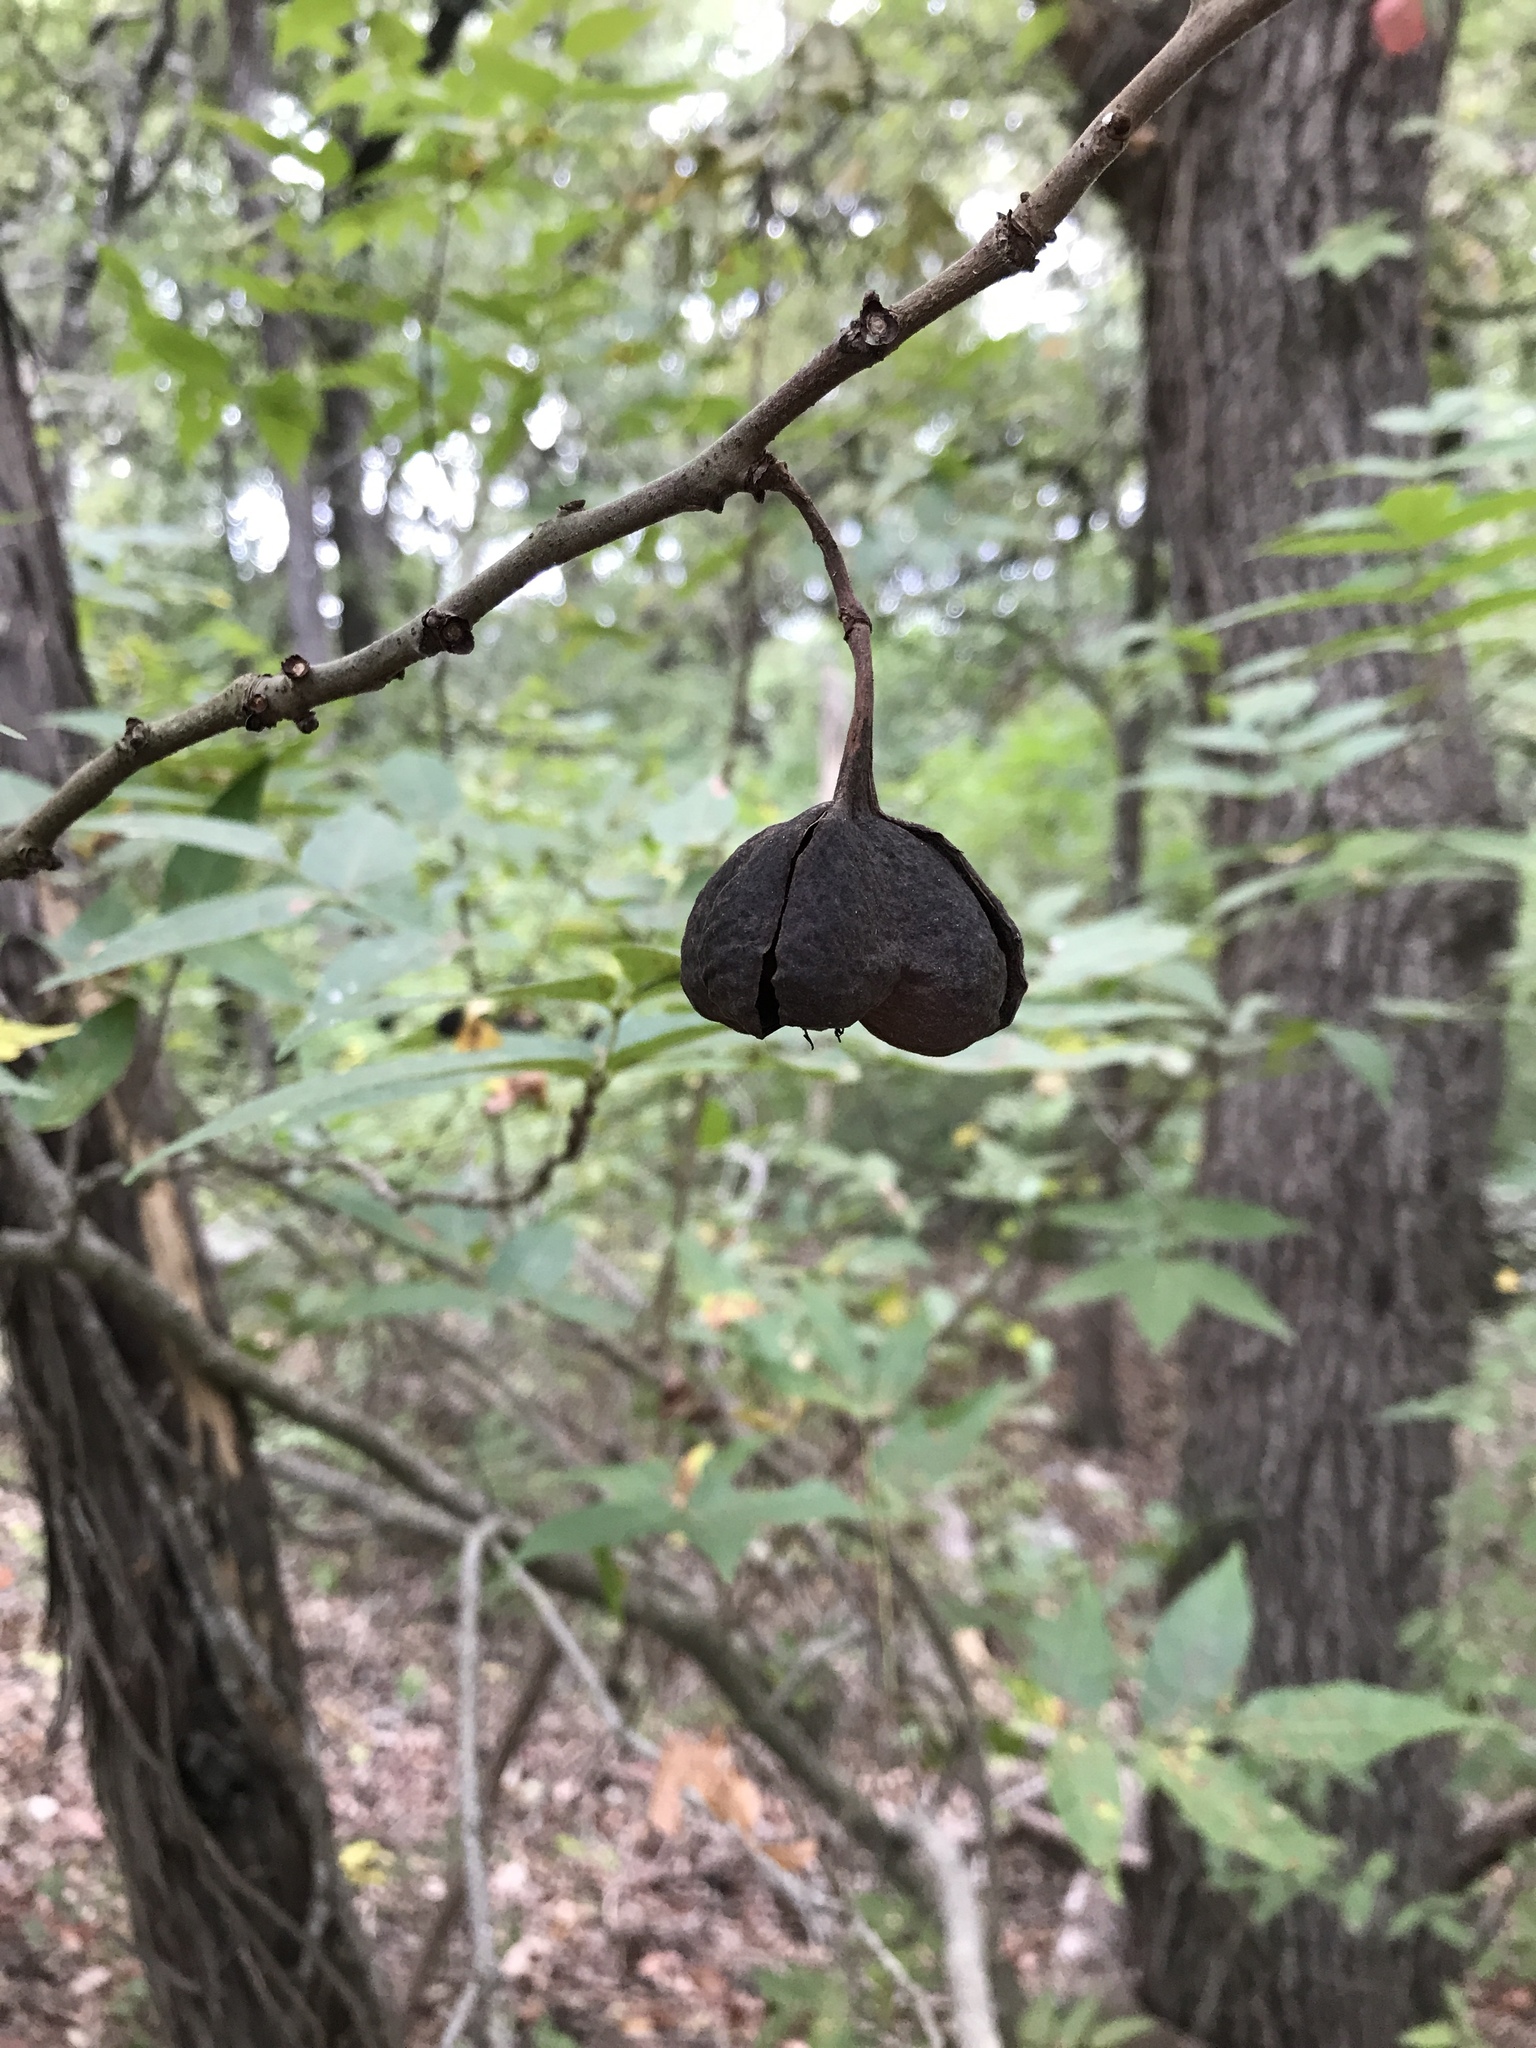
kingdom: Plantae
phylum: Tracheophyta
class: Magnoliopsida
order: Sapindales
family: Sapindaceae
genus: Ungnadia
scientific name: Ungnadia speciosa
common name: Texas-buckeye
